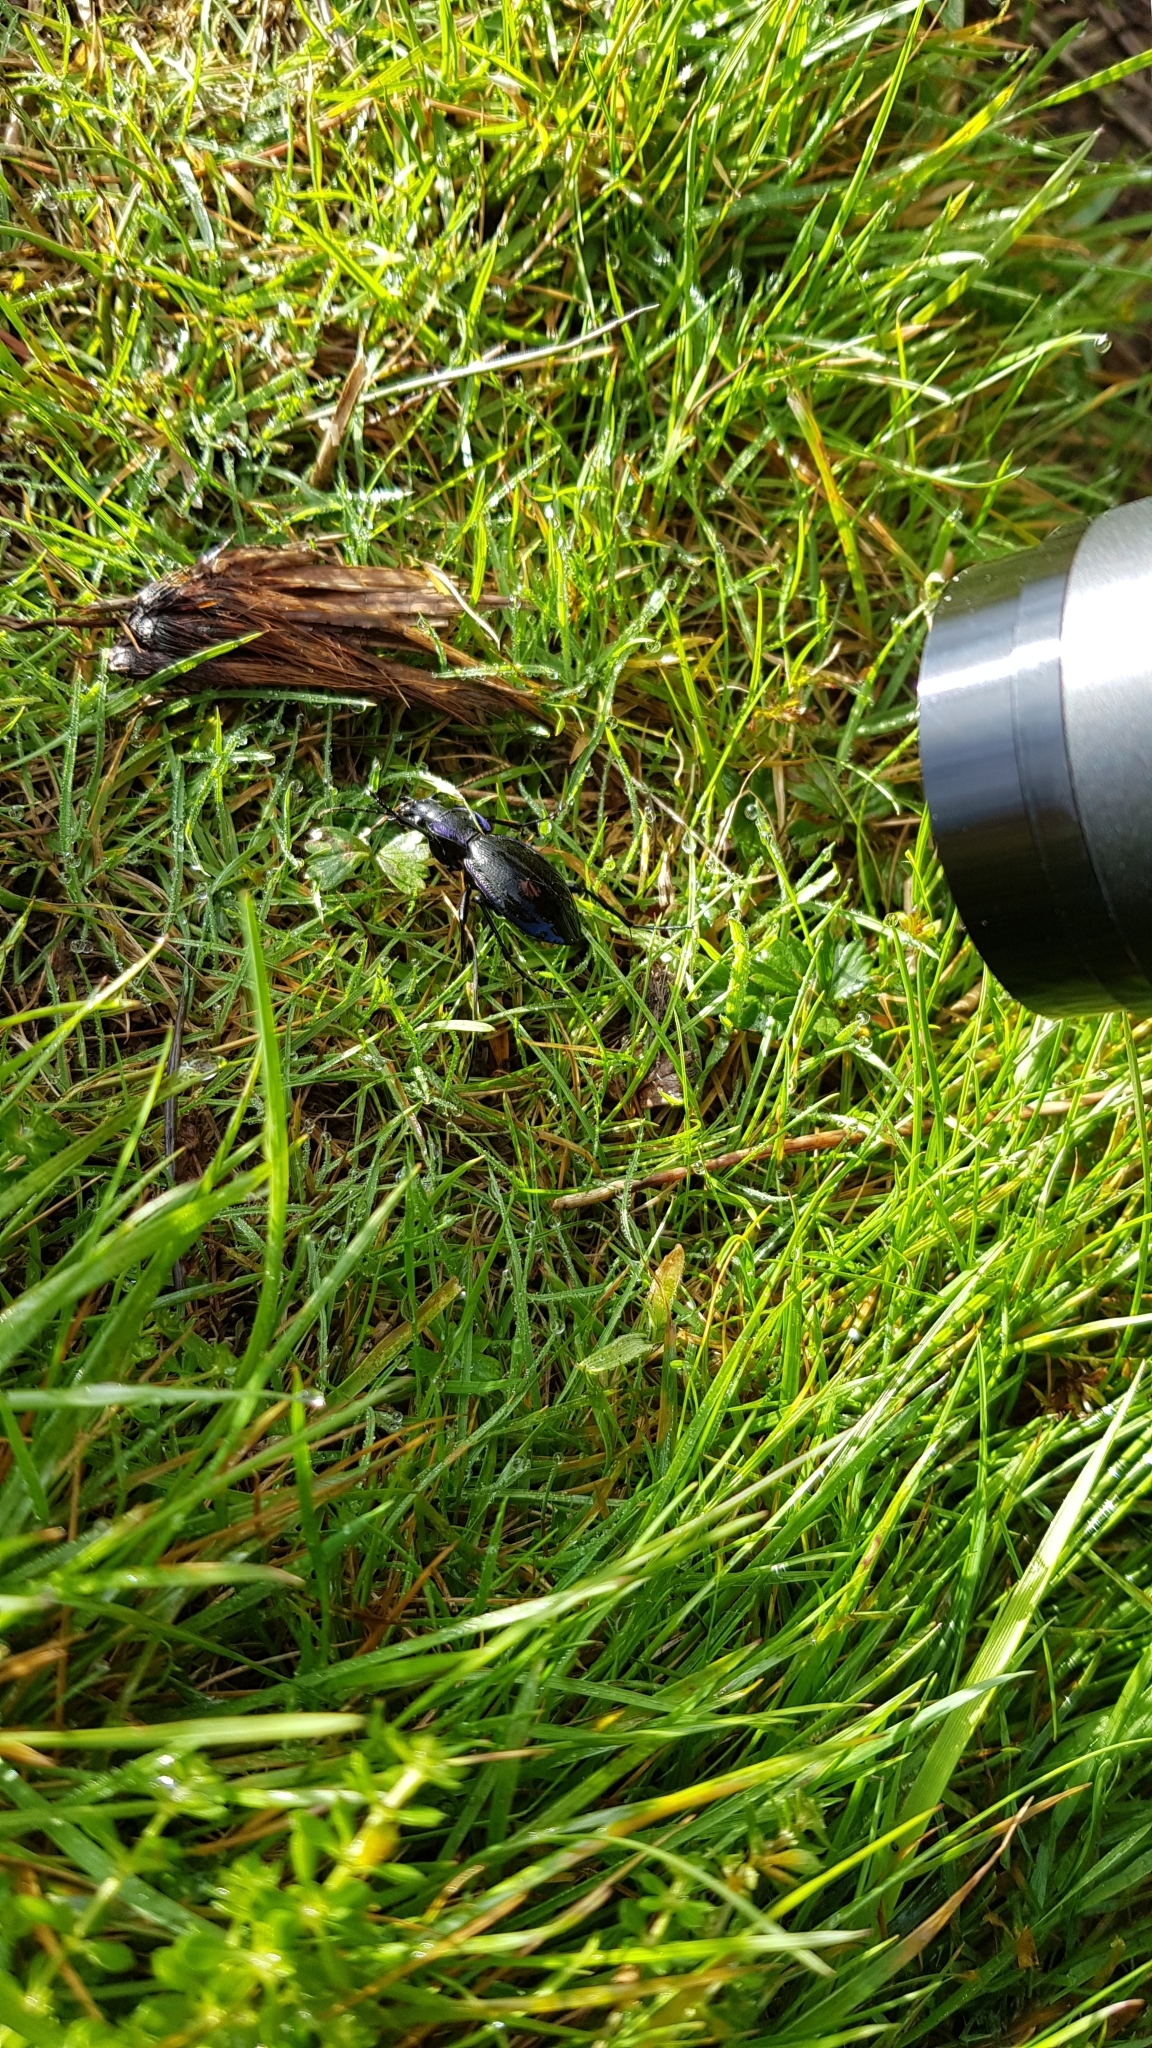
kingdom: Animalia
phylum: Arthropoda
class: Insecta
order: Coleoptera
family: Carabidae
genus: Carabus
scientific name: Carabus problematicus
